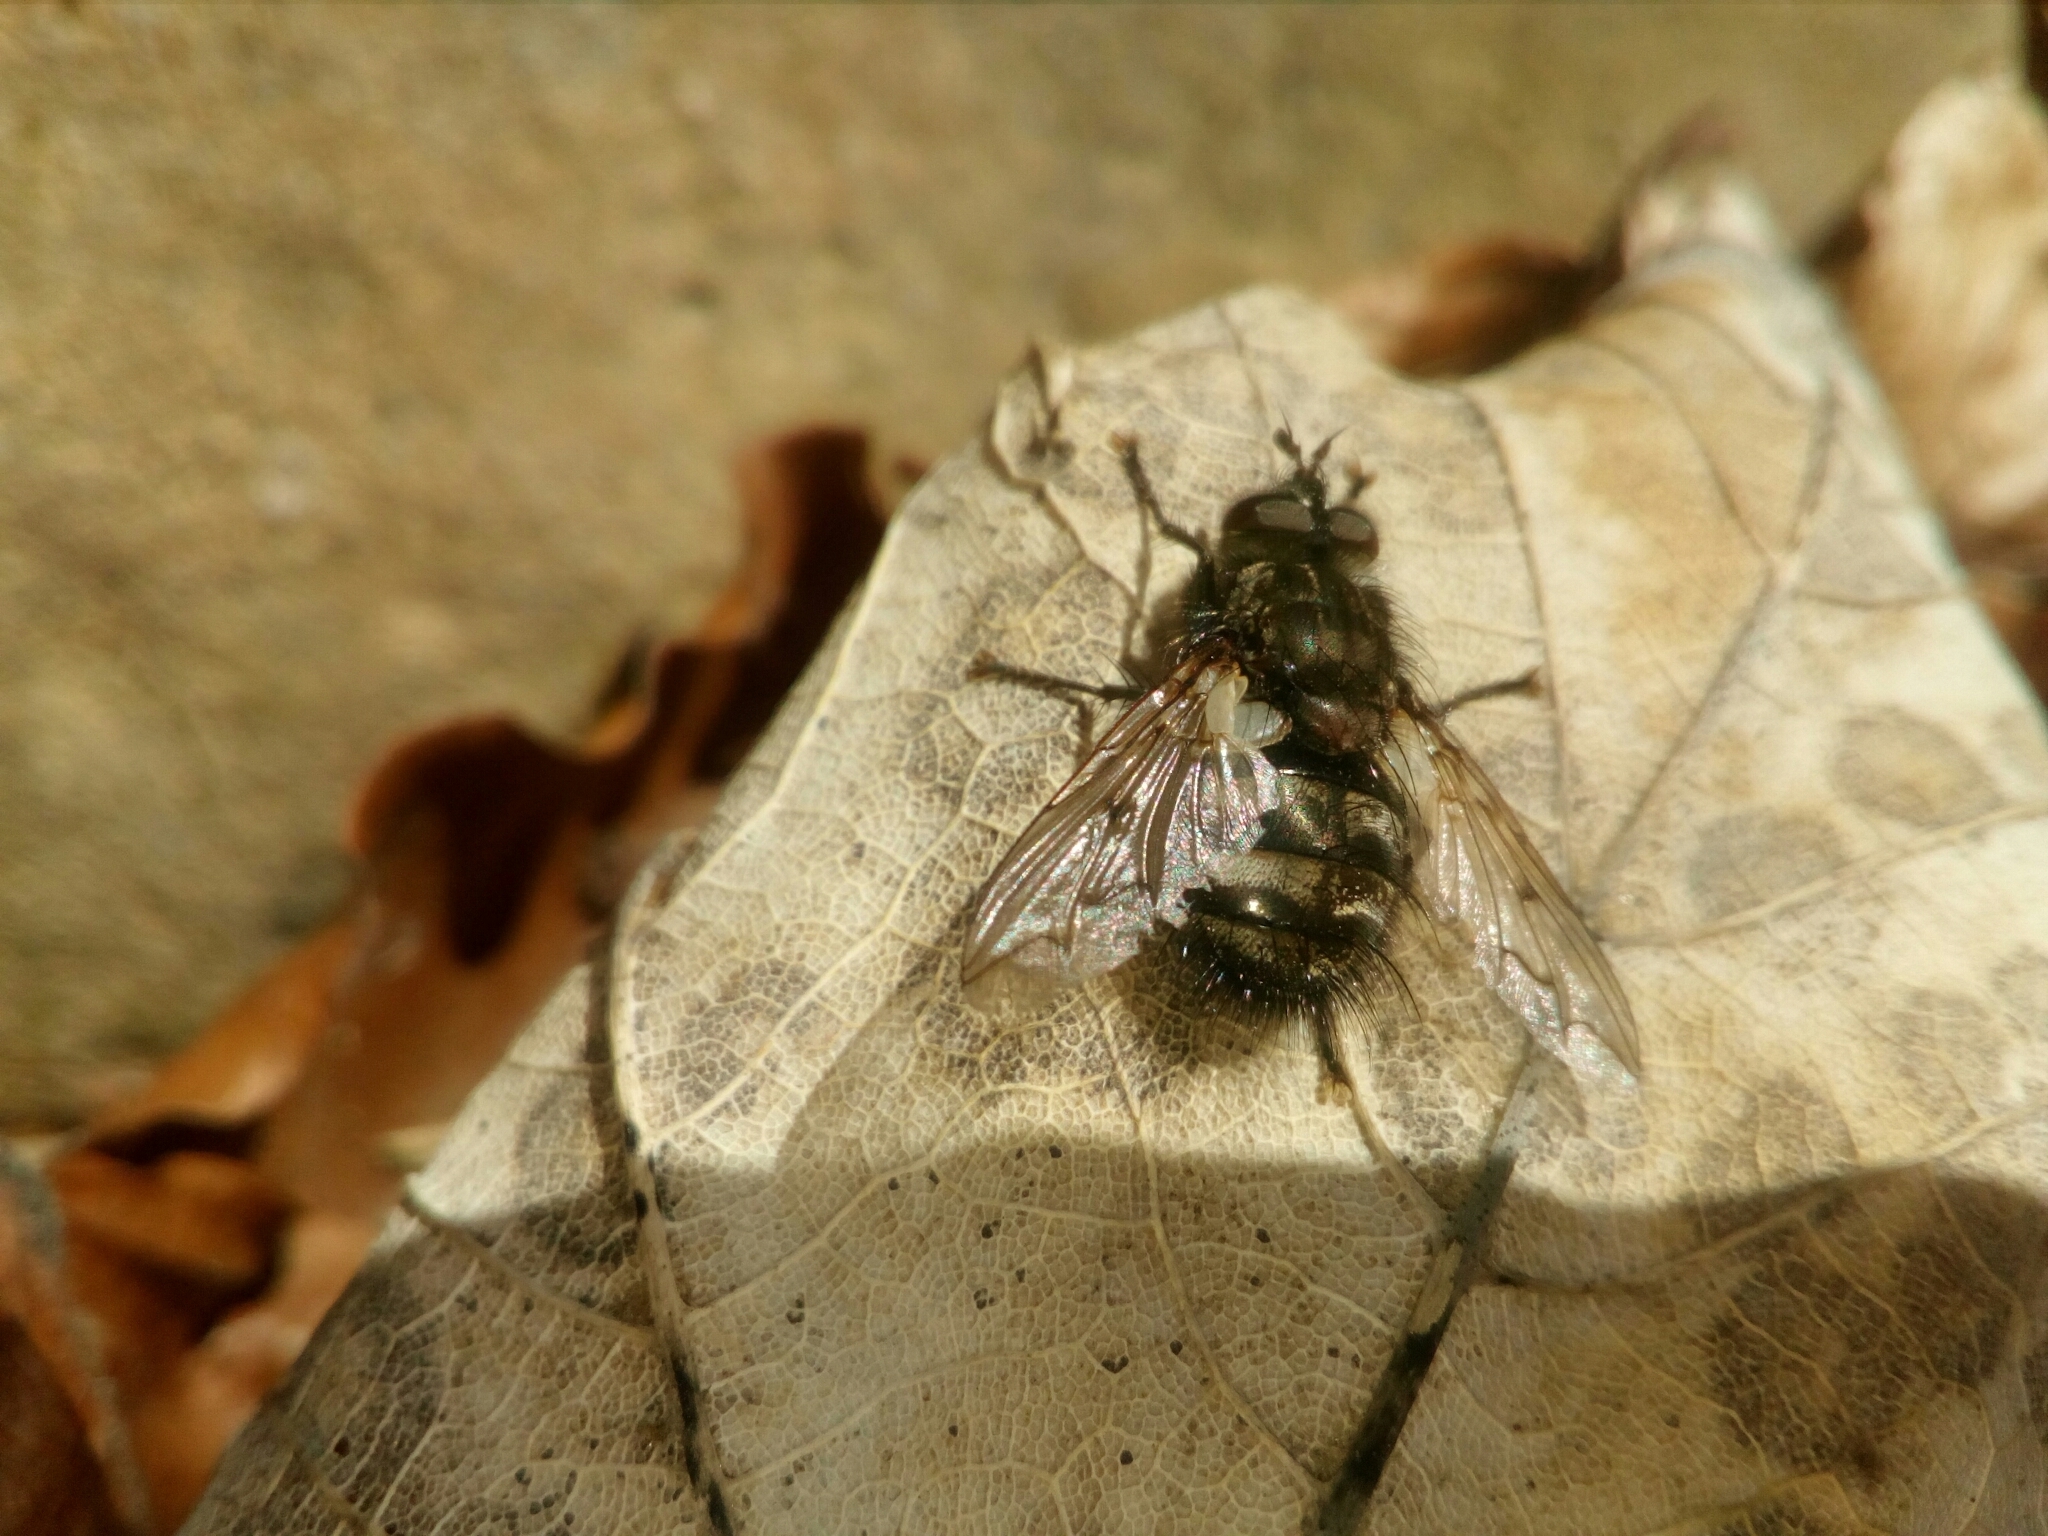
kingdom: Animalia
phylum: Arthropoda
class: Insecta
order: Diptera
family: Tachinidae
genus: Panzeria
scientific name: Panzeria puparum
